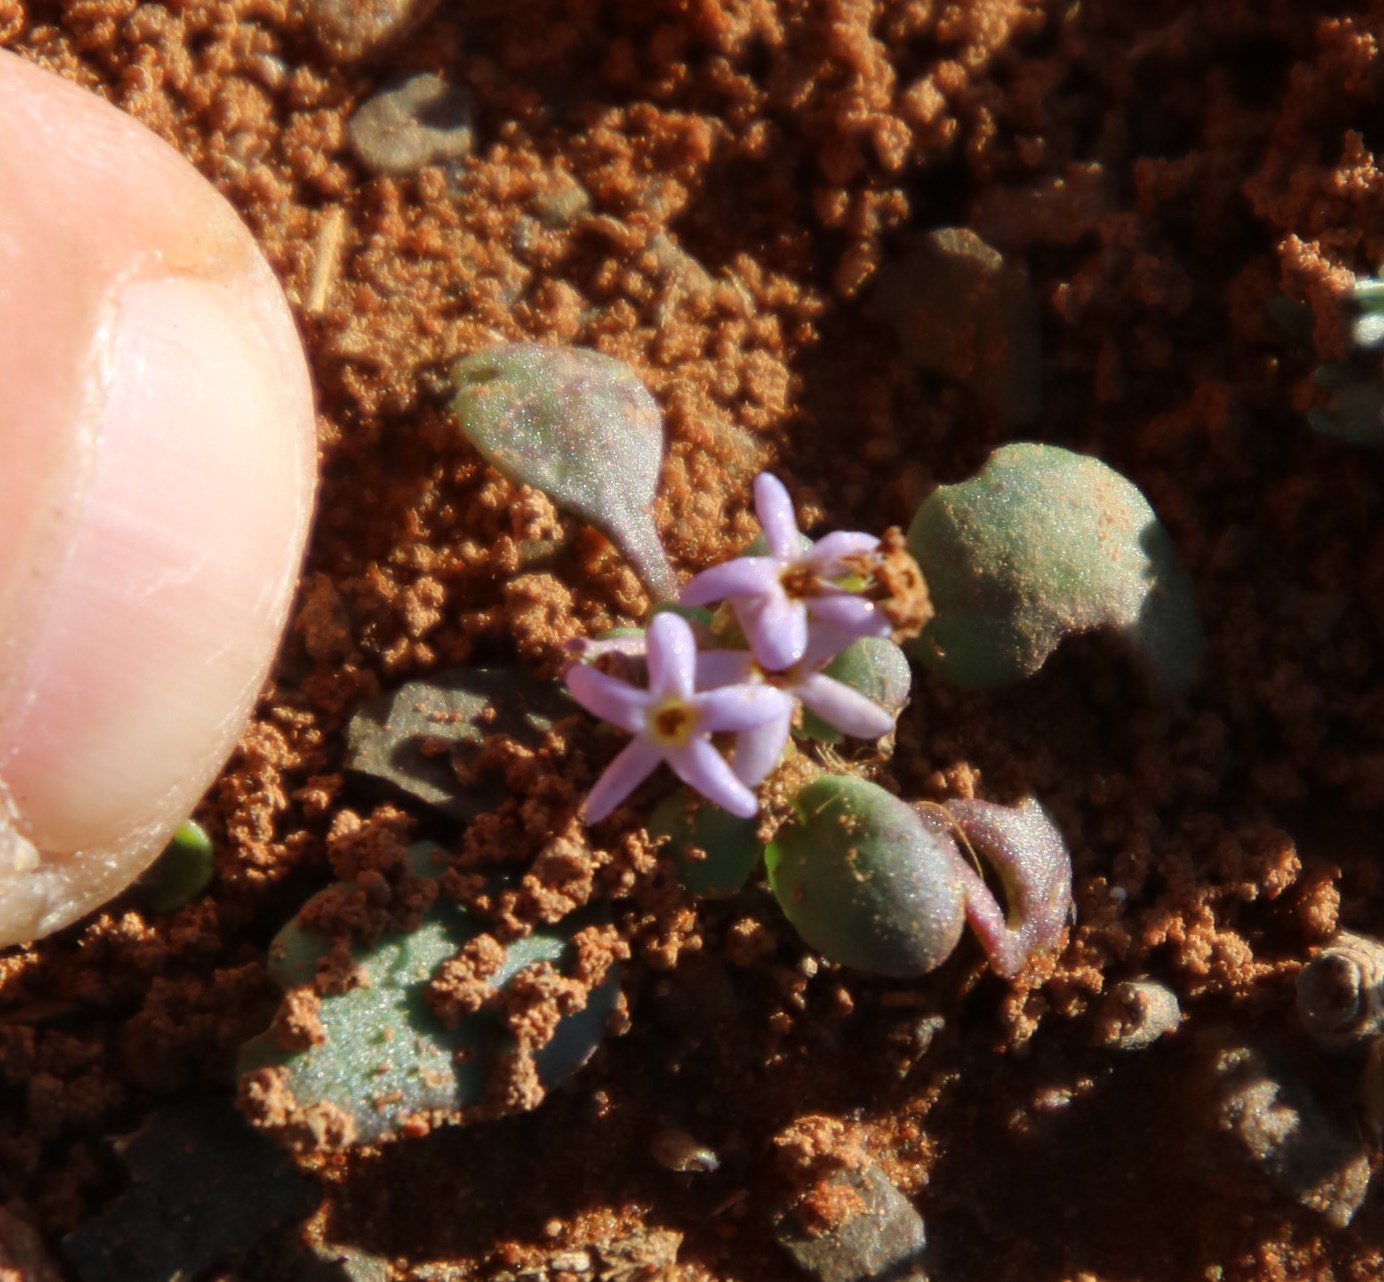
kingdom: Plantae
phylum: Tracheophyta
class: Magnoliopsida
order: Lamiales
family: Scrophulariaceae
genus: Manulea
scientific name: Manulea fragrans
